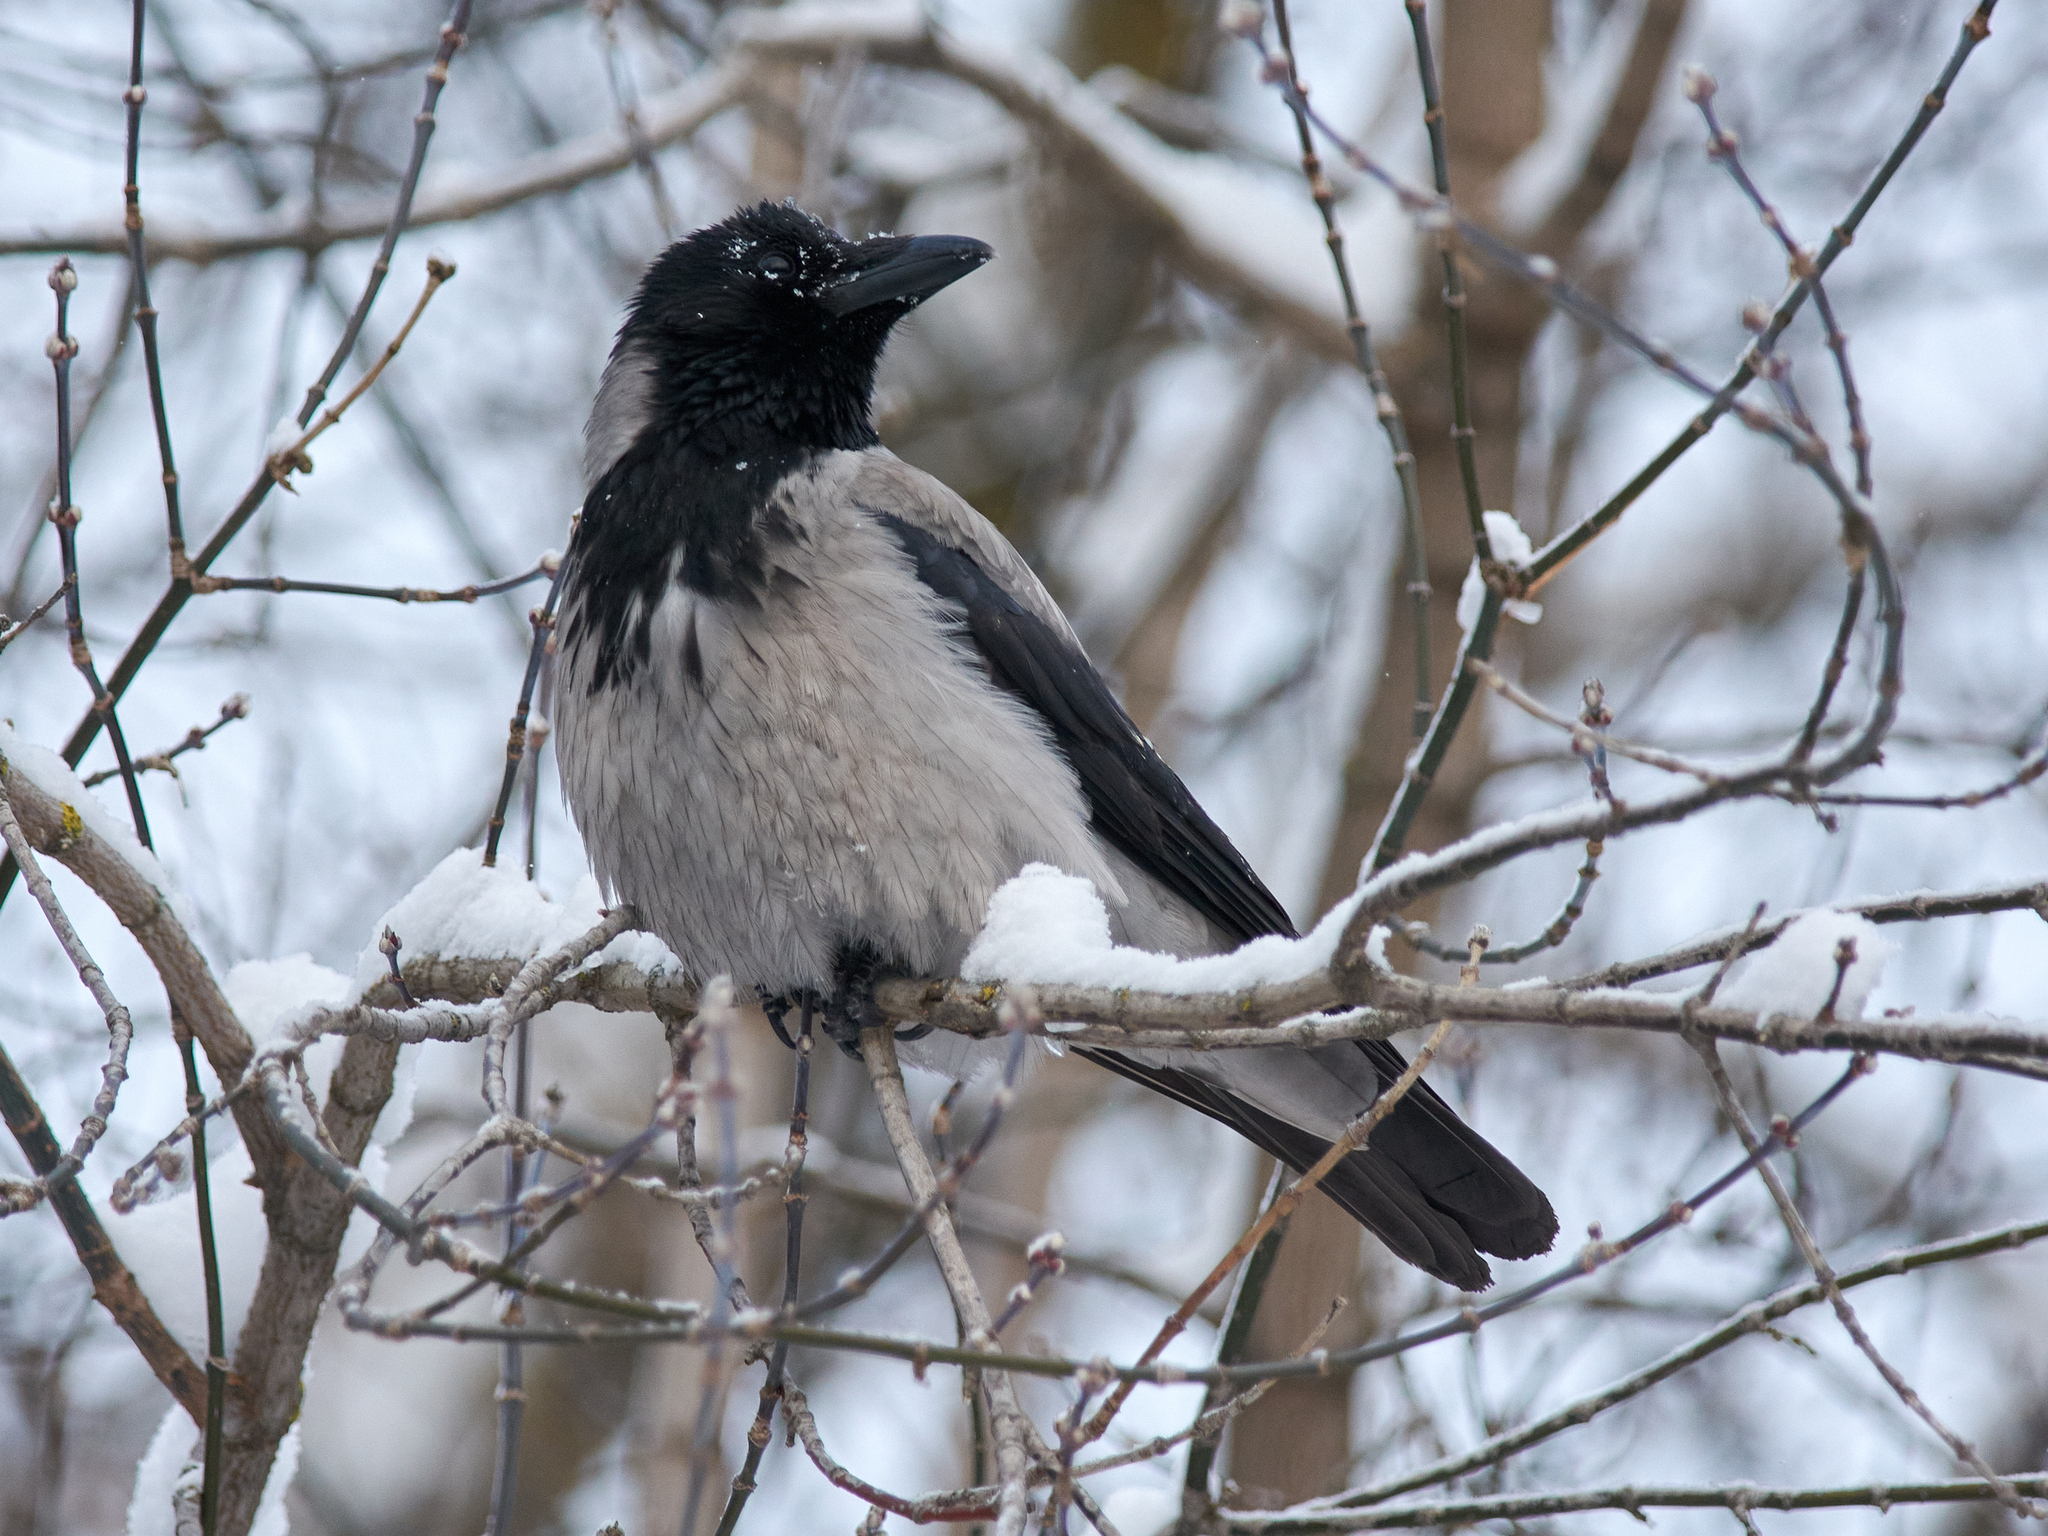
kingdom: Animalia
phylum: Chordata
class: Aves
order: Passeriformes
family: Corvidae
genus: Corvus
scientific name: Corvus cornix
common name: Hooded crow
